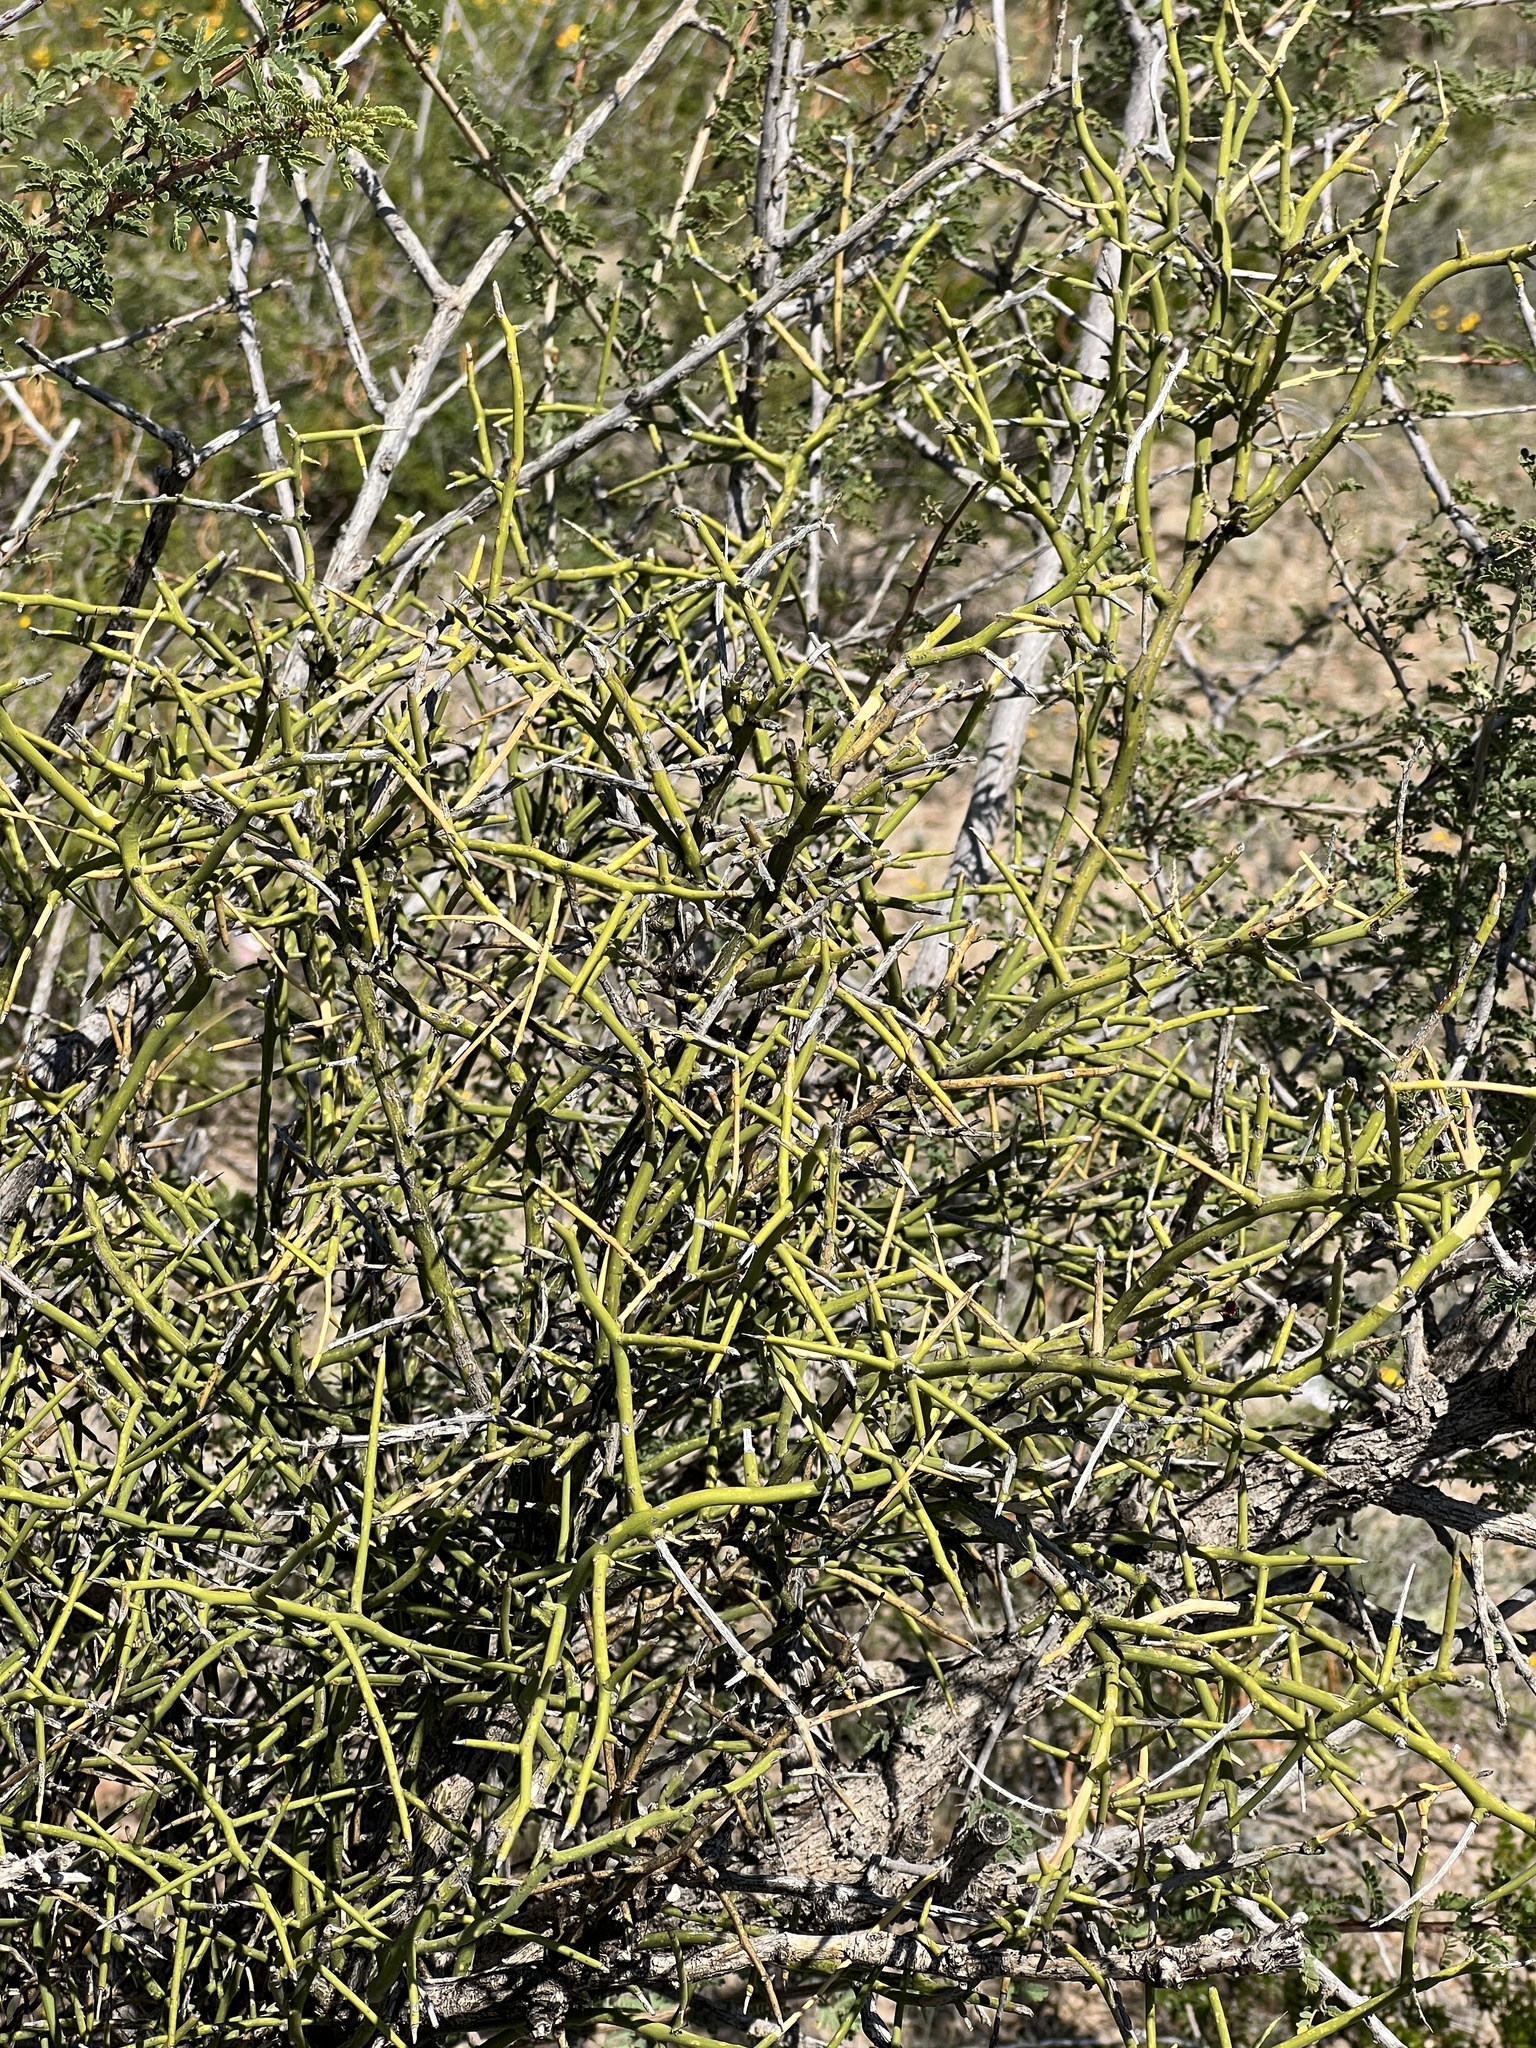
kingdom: Plantae
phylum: Tracheophyta
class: Magnoliopsida
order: Brassicales
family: Koeberliniaceae
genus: Koeberlinia
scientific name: Koeberlinia spinosa
